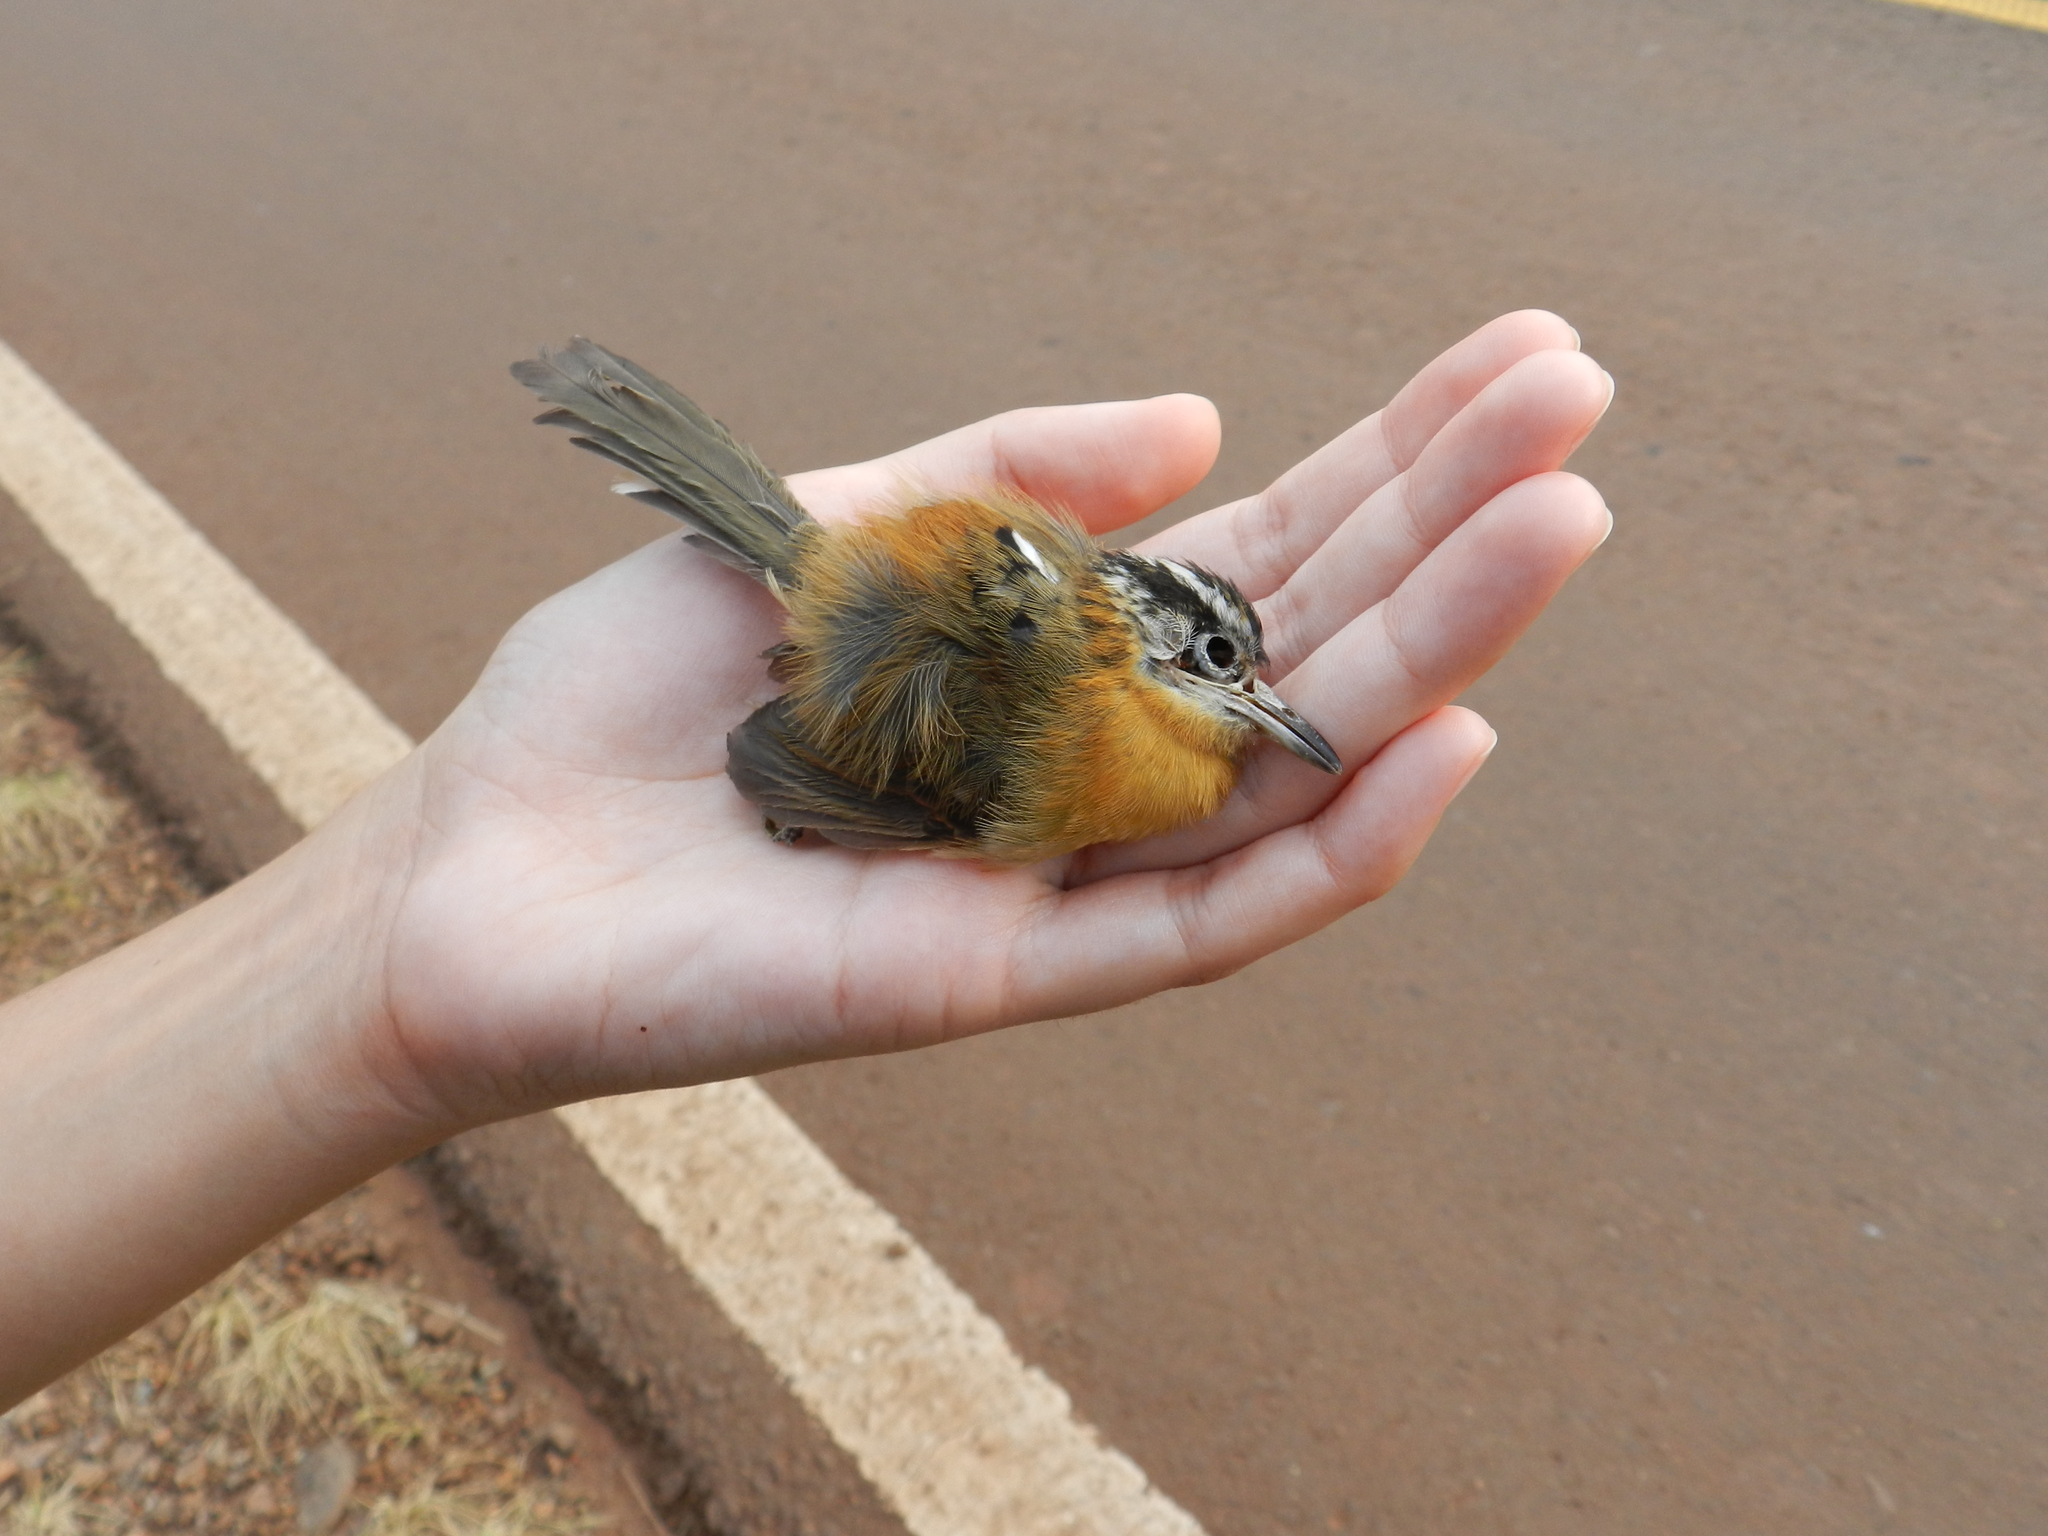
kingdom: Animalia
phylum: Chordata
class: Aves
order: Passeriformes
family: Thamnophilidae
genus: Drymophila
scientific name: Drymophila rubricollis
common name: Bertoni's antbird
